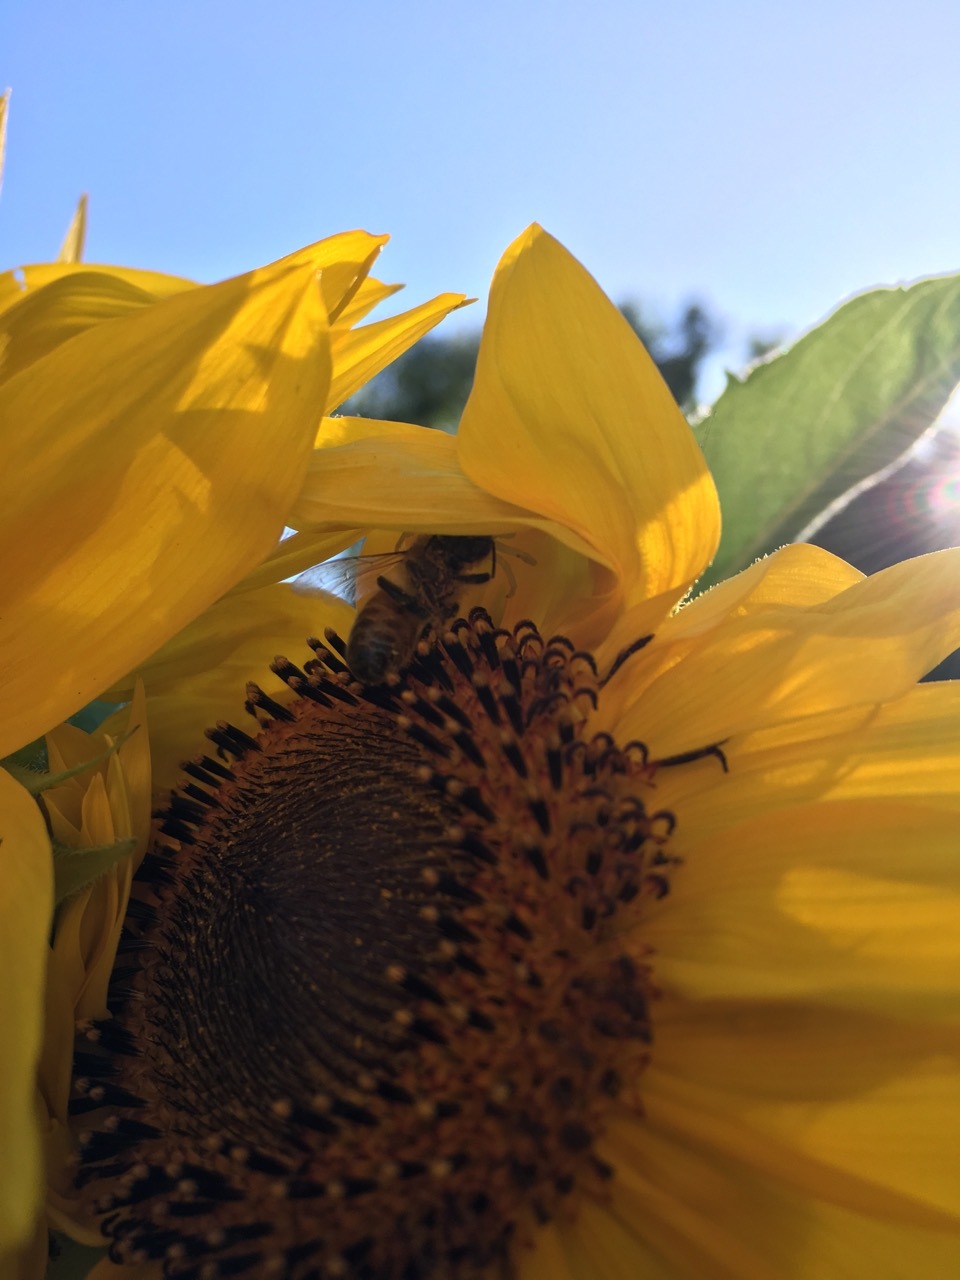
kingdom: Animalia
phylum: Arthropoda
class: Insecta
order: Hymenoptera
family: Apidae
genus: Apis
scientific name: Apis mellifera
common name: Honey bee
